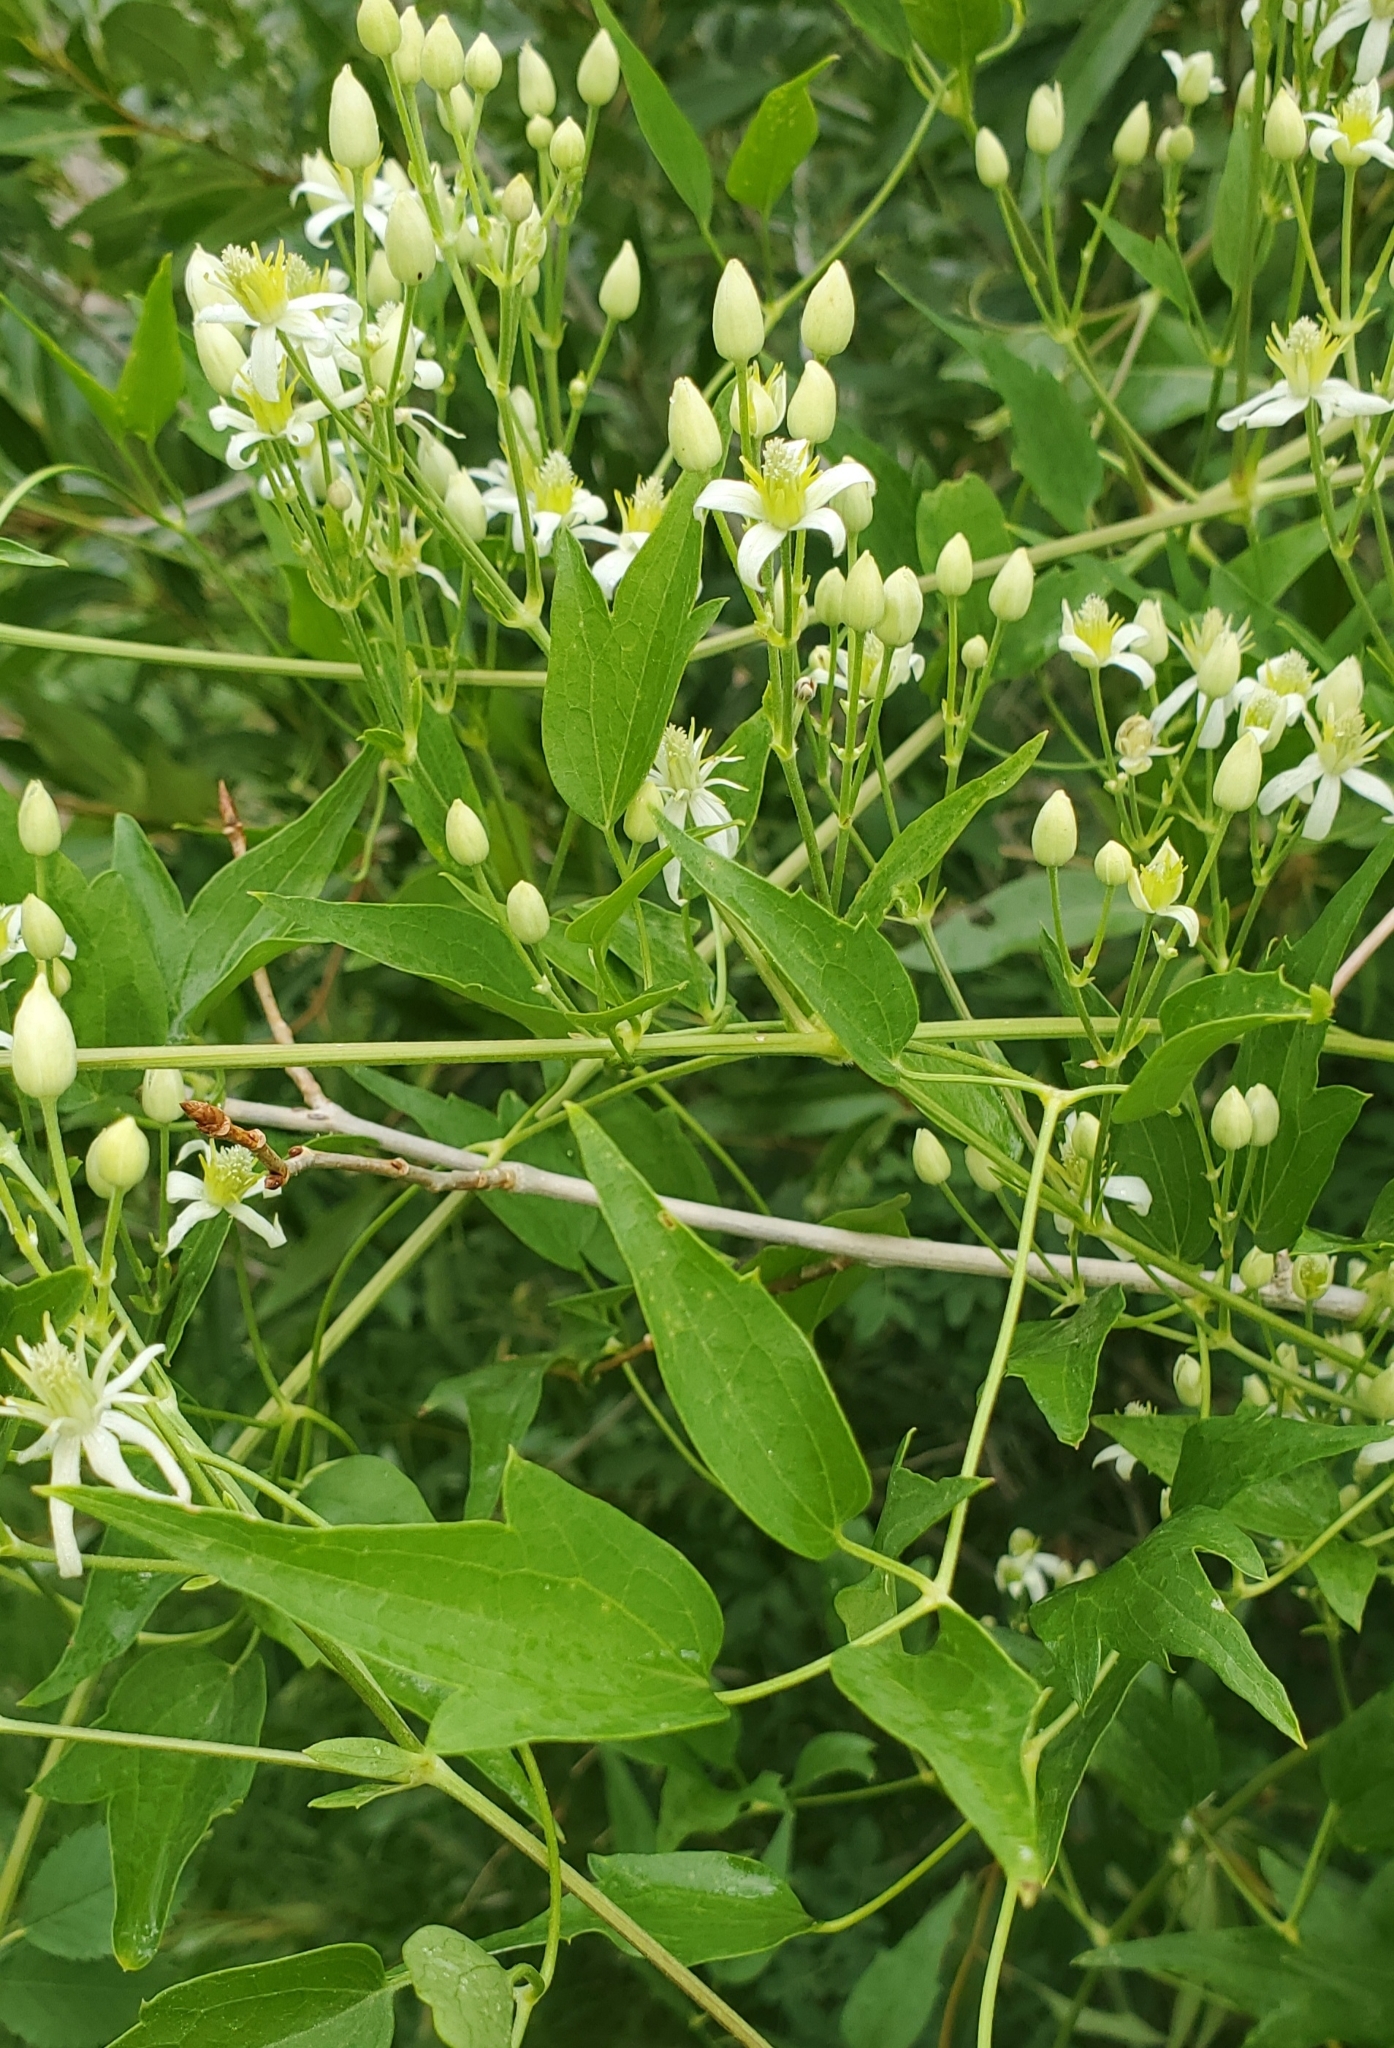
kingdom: Plantae
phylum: Tracheophyta
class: Magnoliopsida
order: Ranunculales
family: Ranunculaceae
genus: Clematis
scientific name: Clematis ligusticifolia
